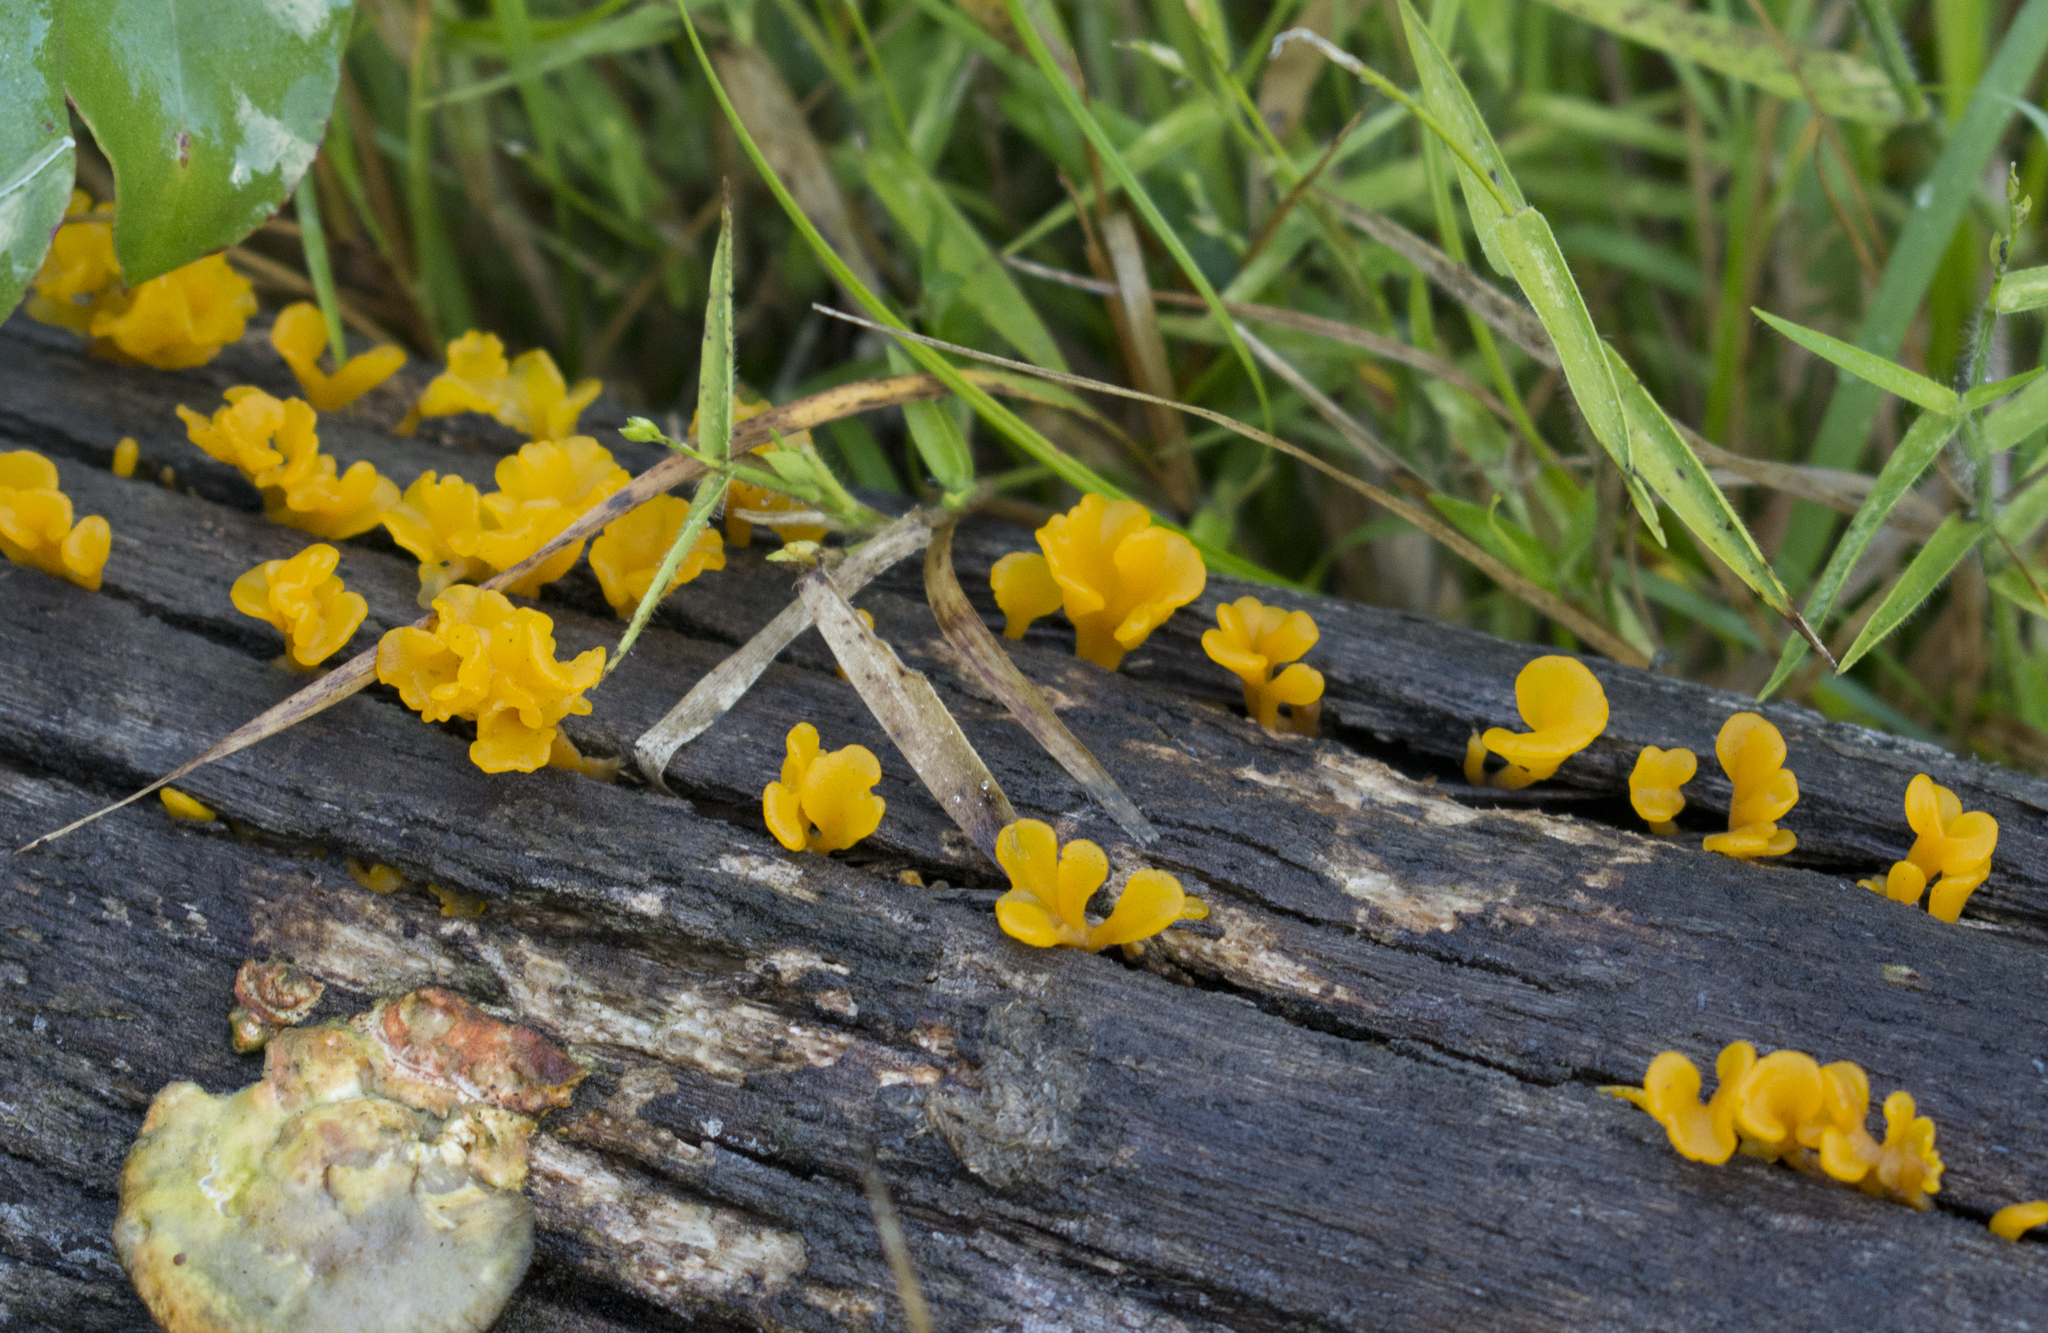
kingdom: Fungi
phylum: Basidiomycota
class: Dacrymycetes
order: Dacrymycetales
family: Dacrymycetaceae
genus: Dacrymyces
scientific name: Dacrymyces spathularius
